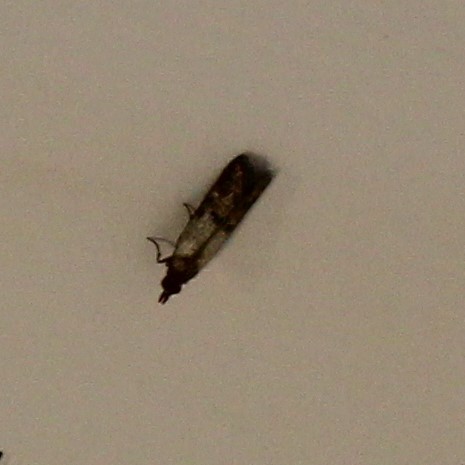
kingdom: Animalia
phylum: Arthropoda
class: Insecta
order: Lepidoptera
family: Pyralidae
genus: Plodia
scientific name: Plodia interpunctella
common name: Indian meal moth
